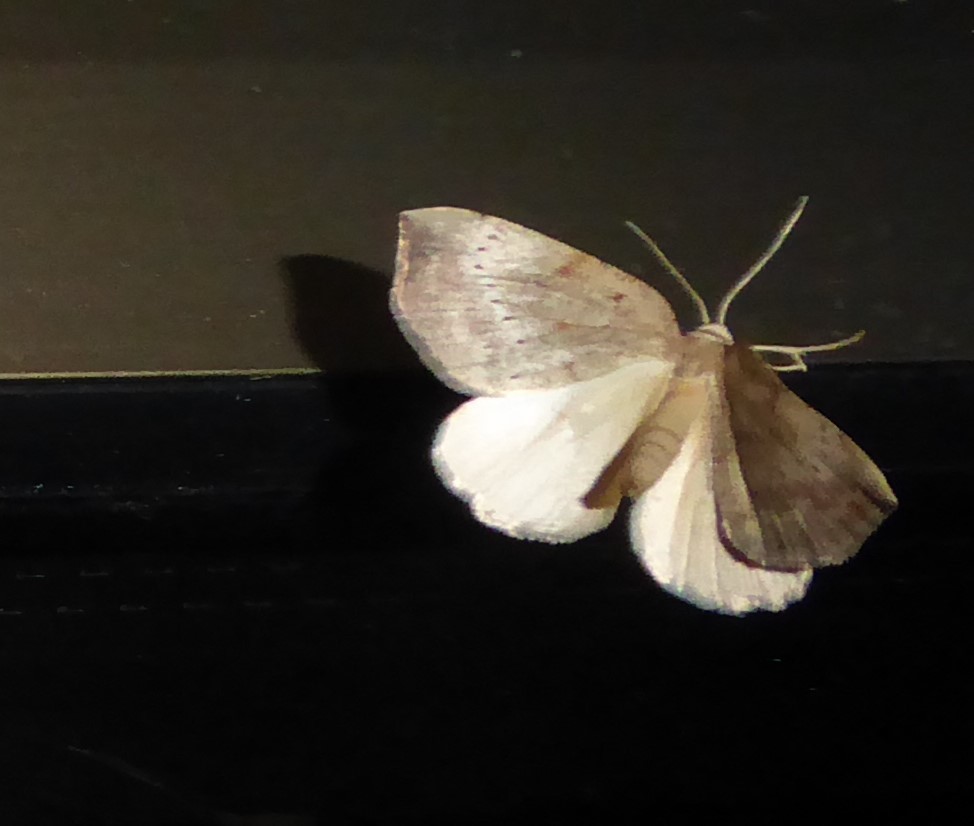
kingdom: Animalia
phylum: Arthropoda
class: Insecta
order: Lepidoptera
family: Geometridae
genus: Sestra
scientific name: Sestra humeraria
